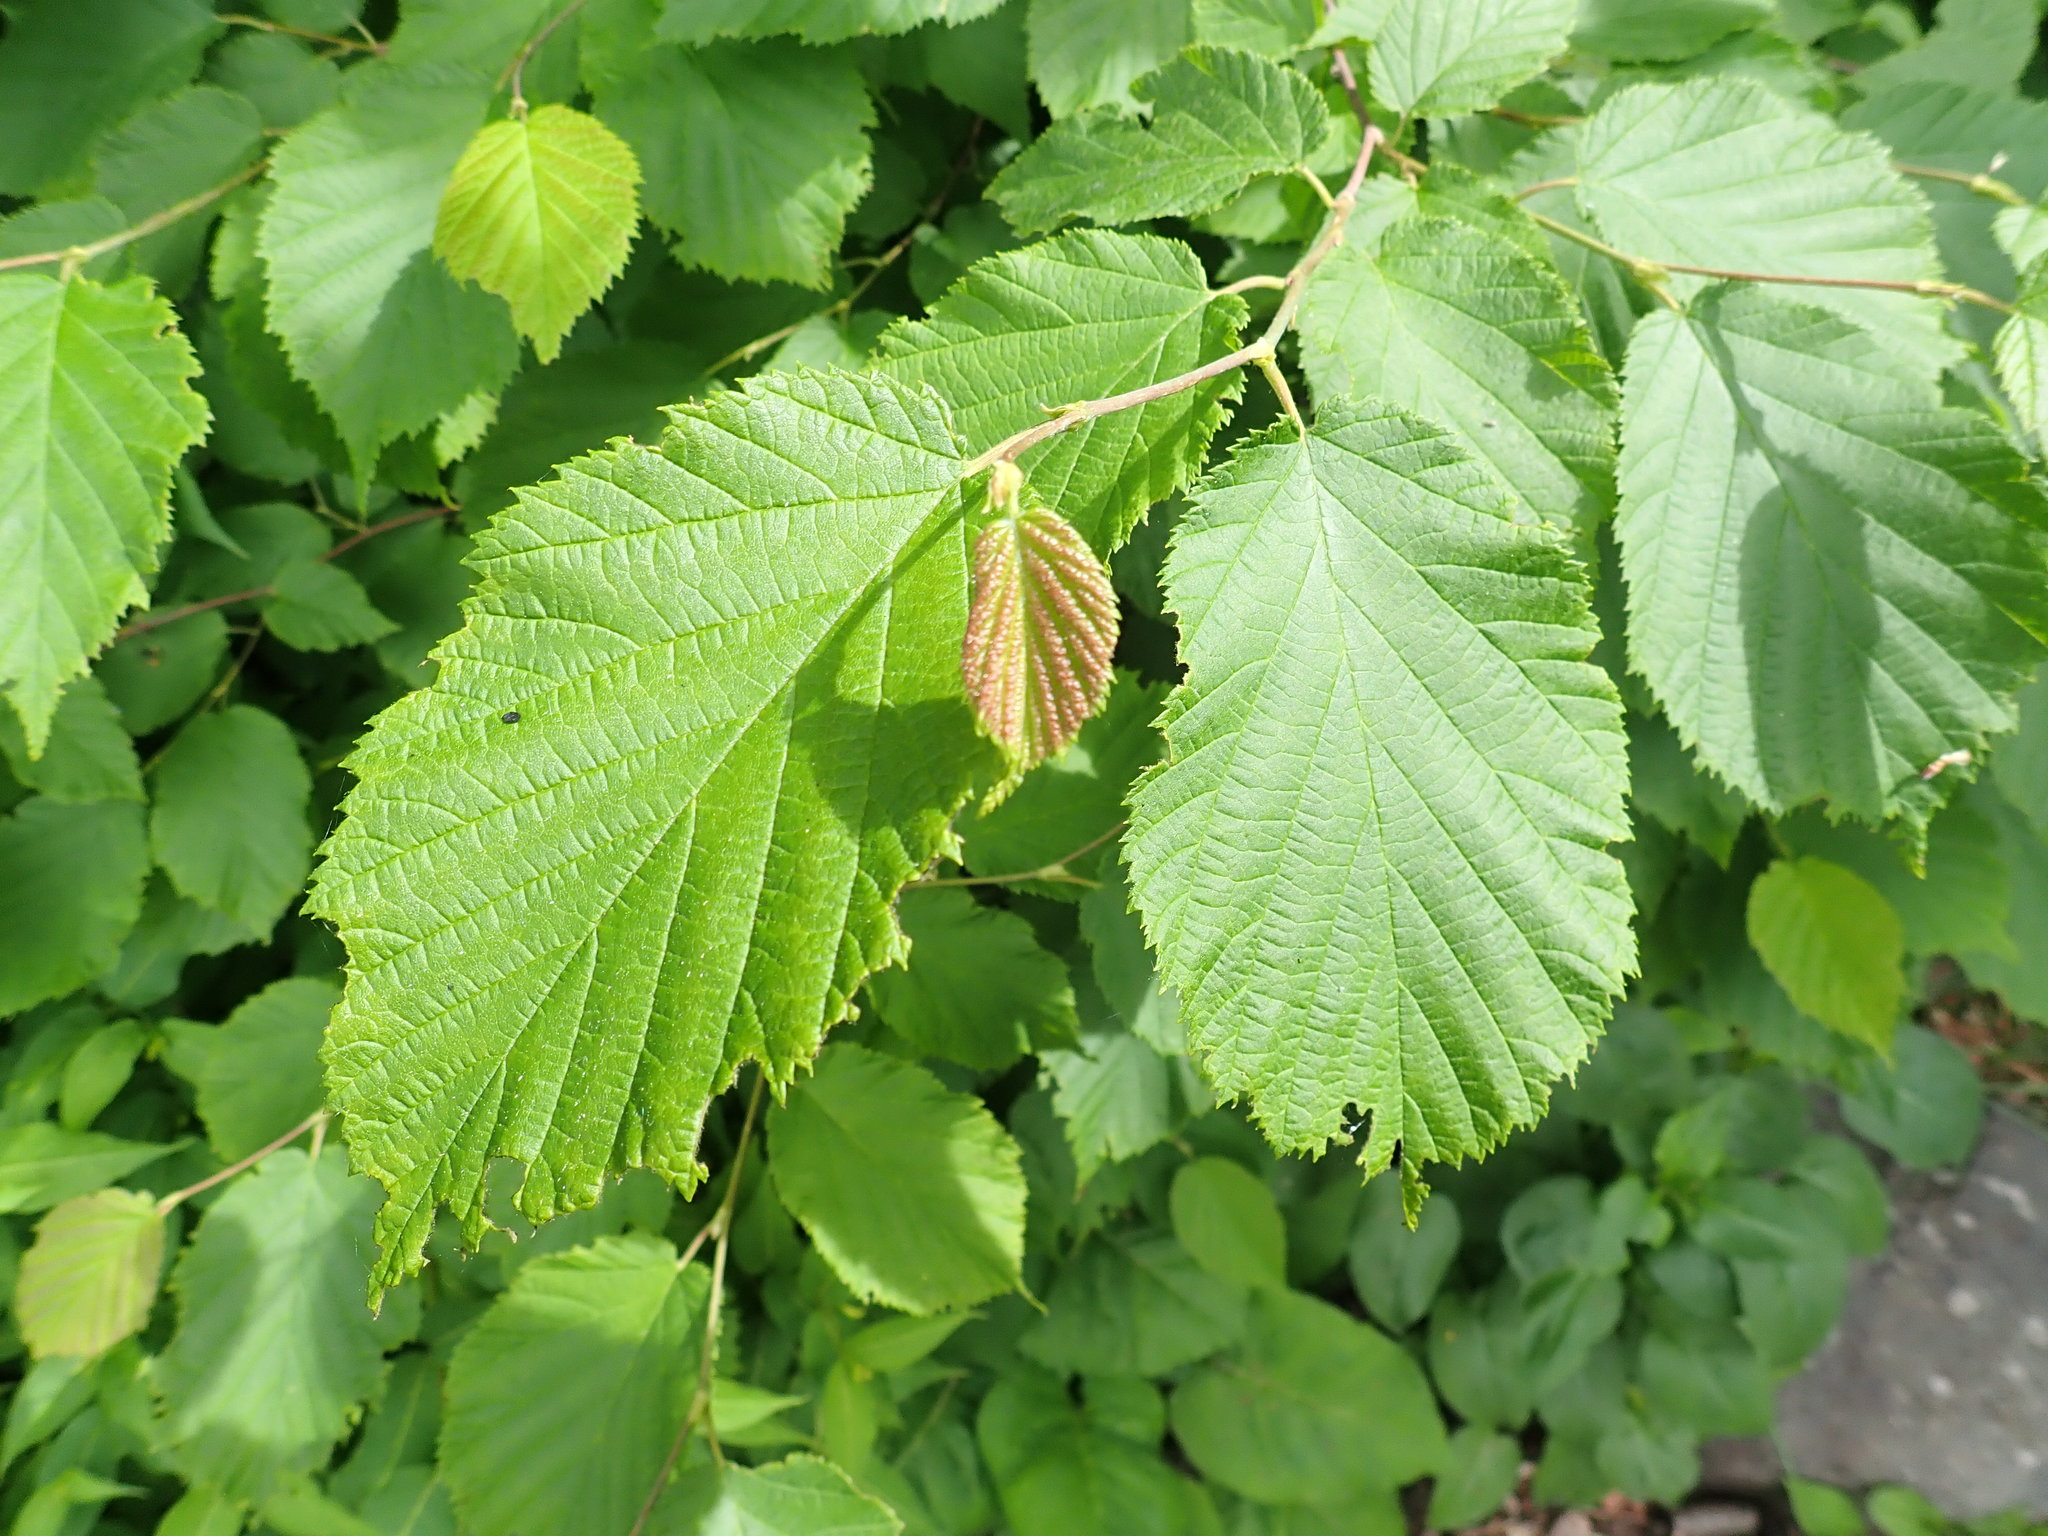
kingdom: Plantae
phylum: Tracheophyta
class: Magnoliopsida
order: Fagales
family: Betulaceae
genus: Corylus
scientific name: Corylus cornuta
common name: Beaked hazel
